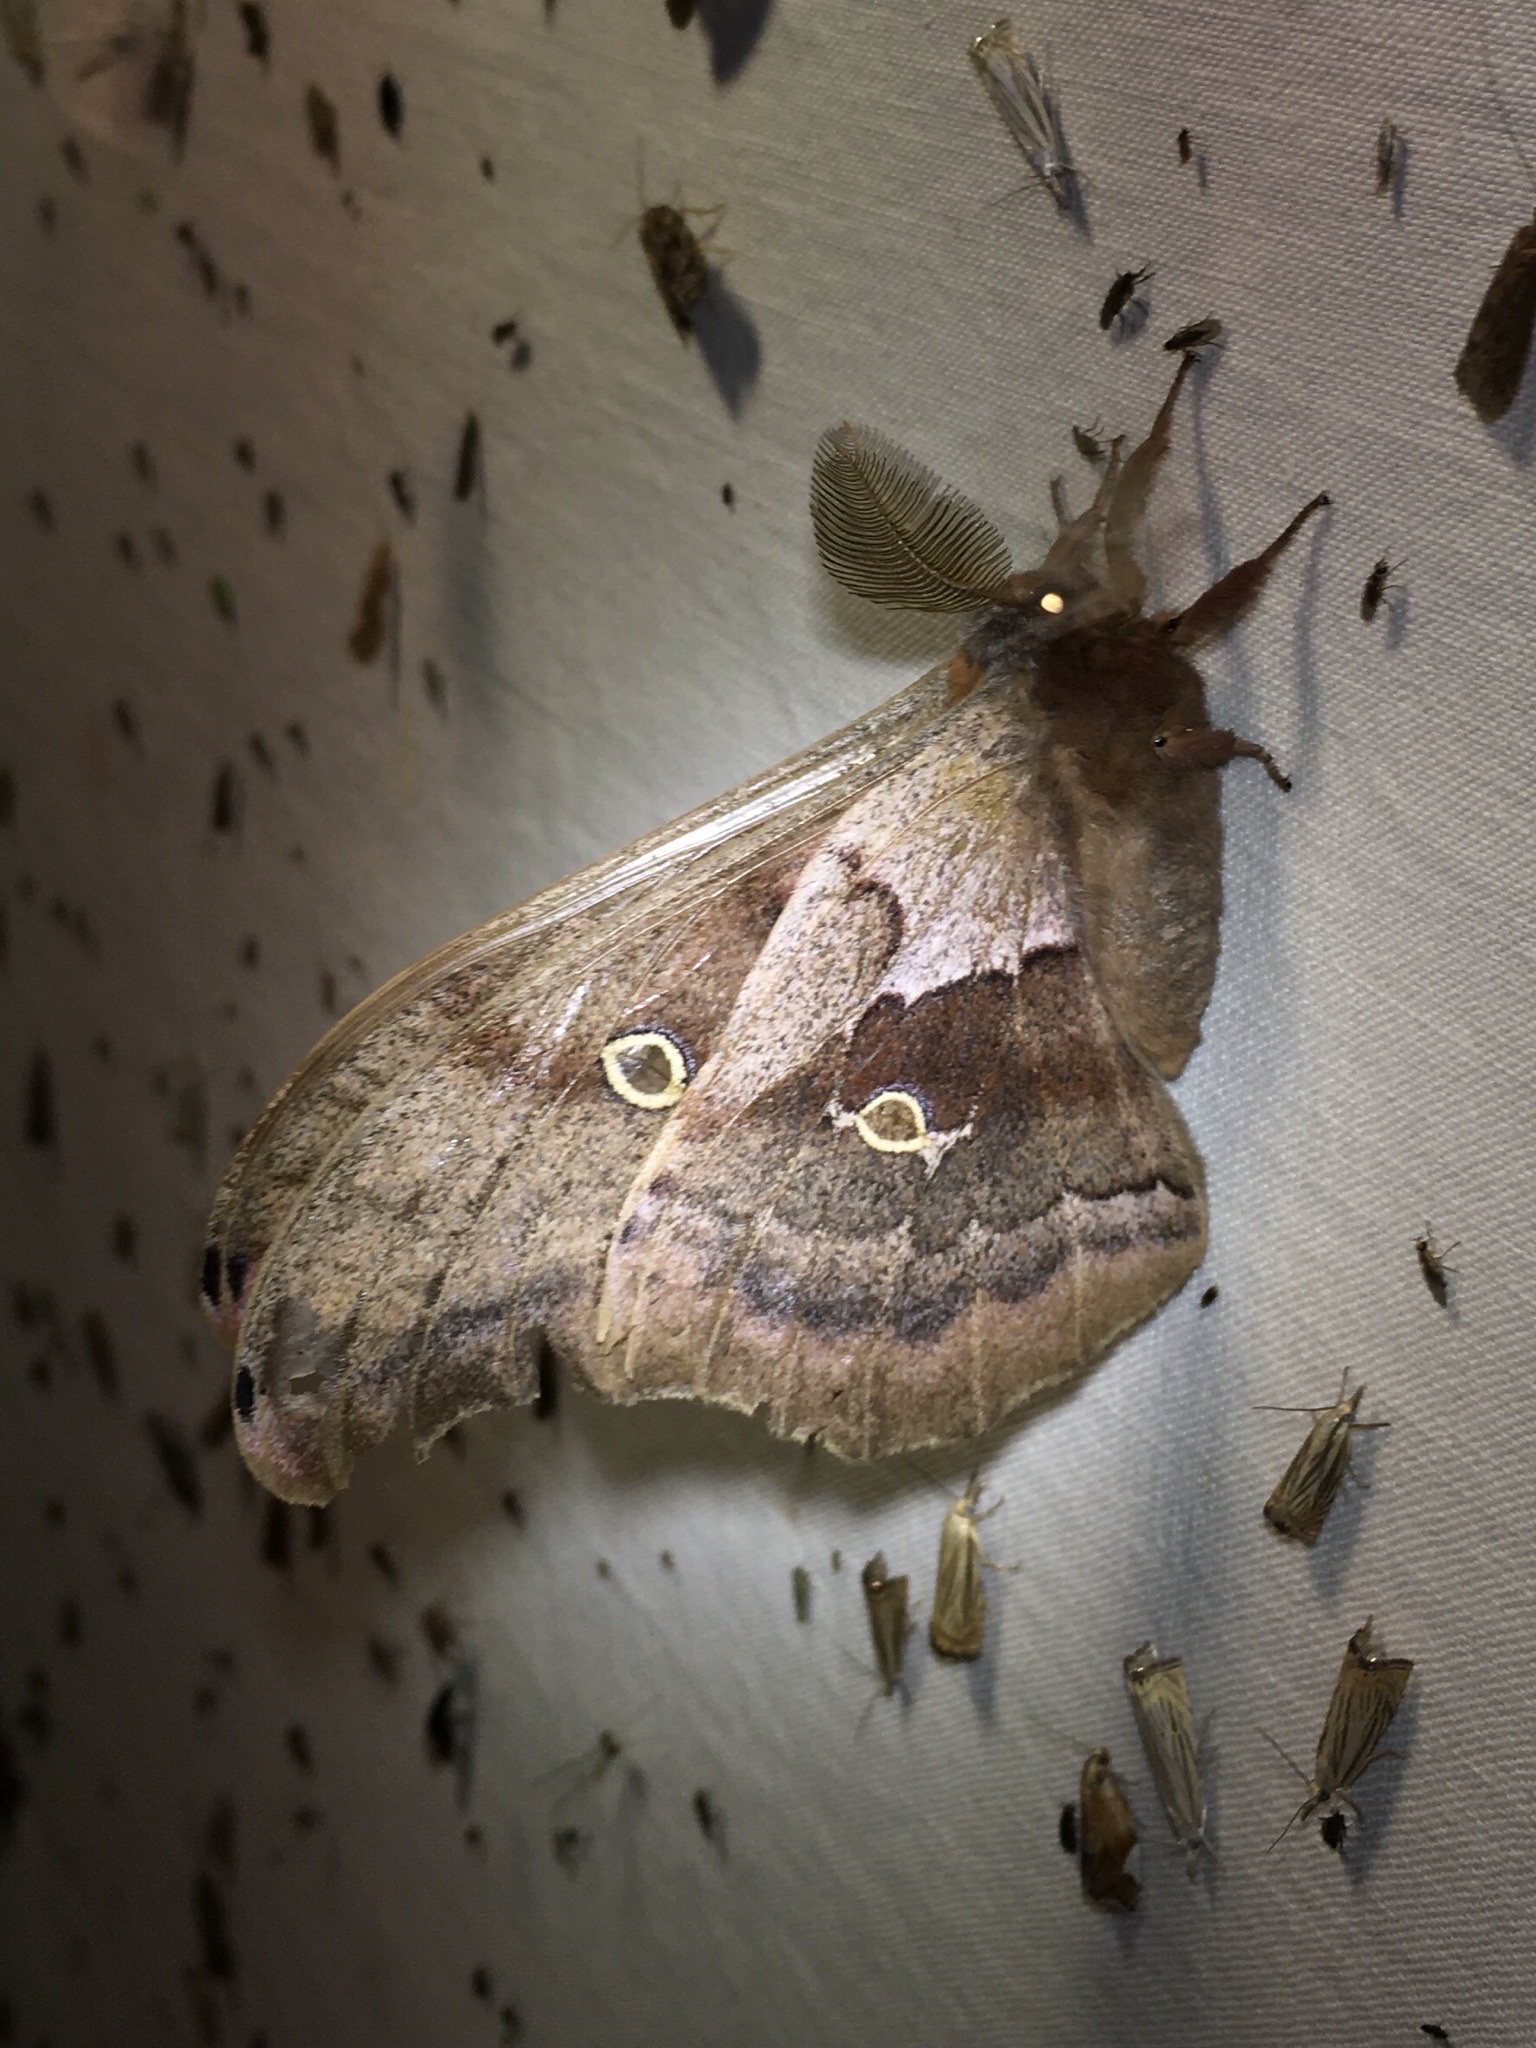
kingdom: Animalia
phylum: Arthropoda
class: Insecta
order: Lepidoptera
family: Saturniidae
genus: Antheraea
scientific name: Antheraea polyphemus
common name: Polyphemus moth
